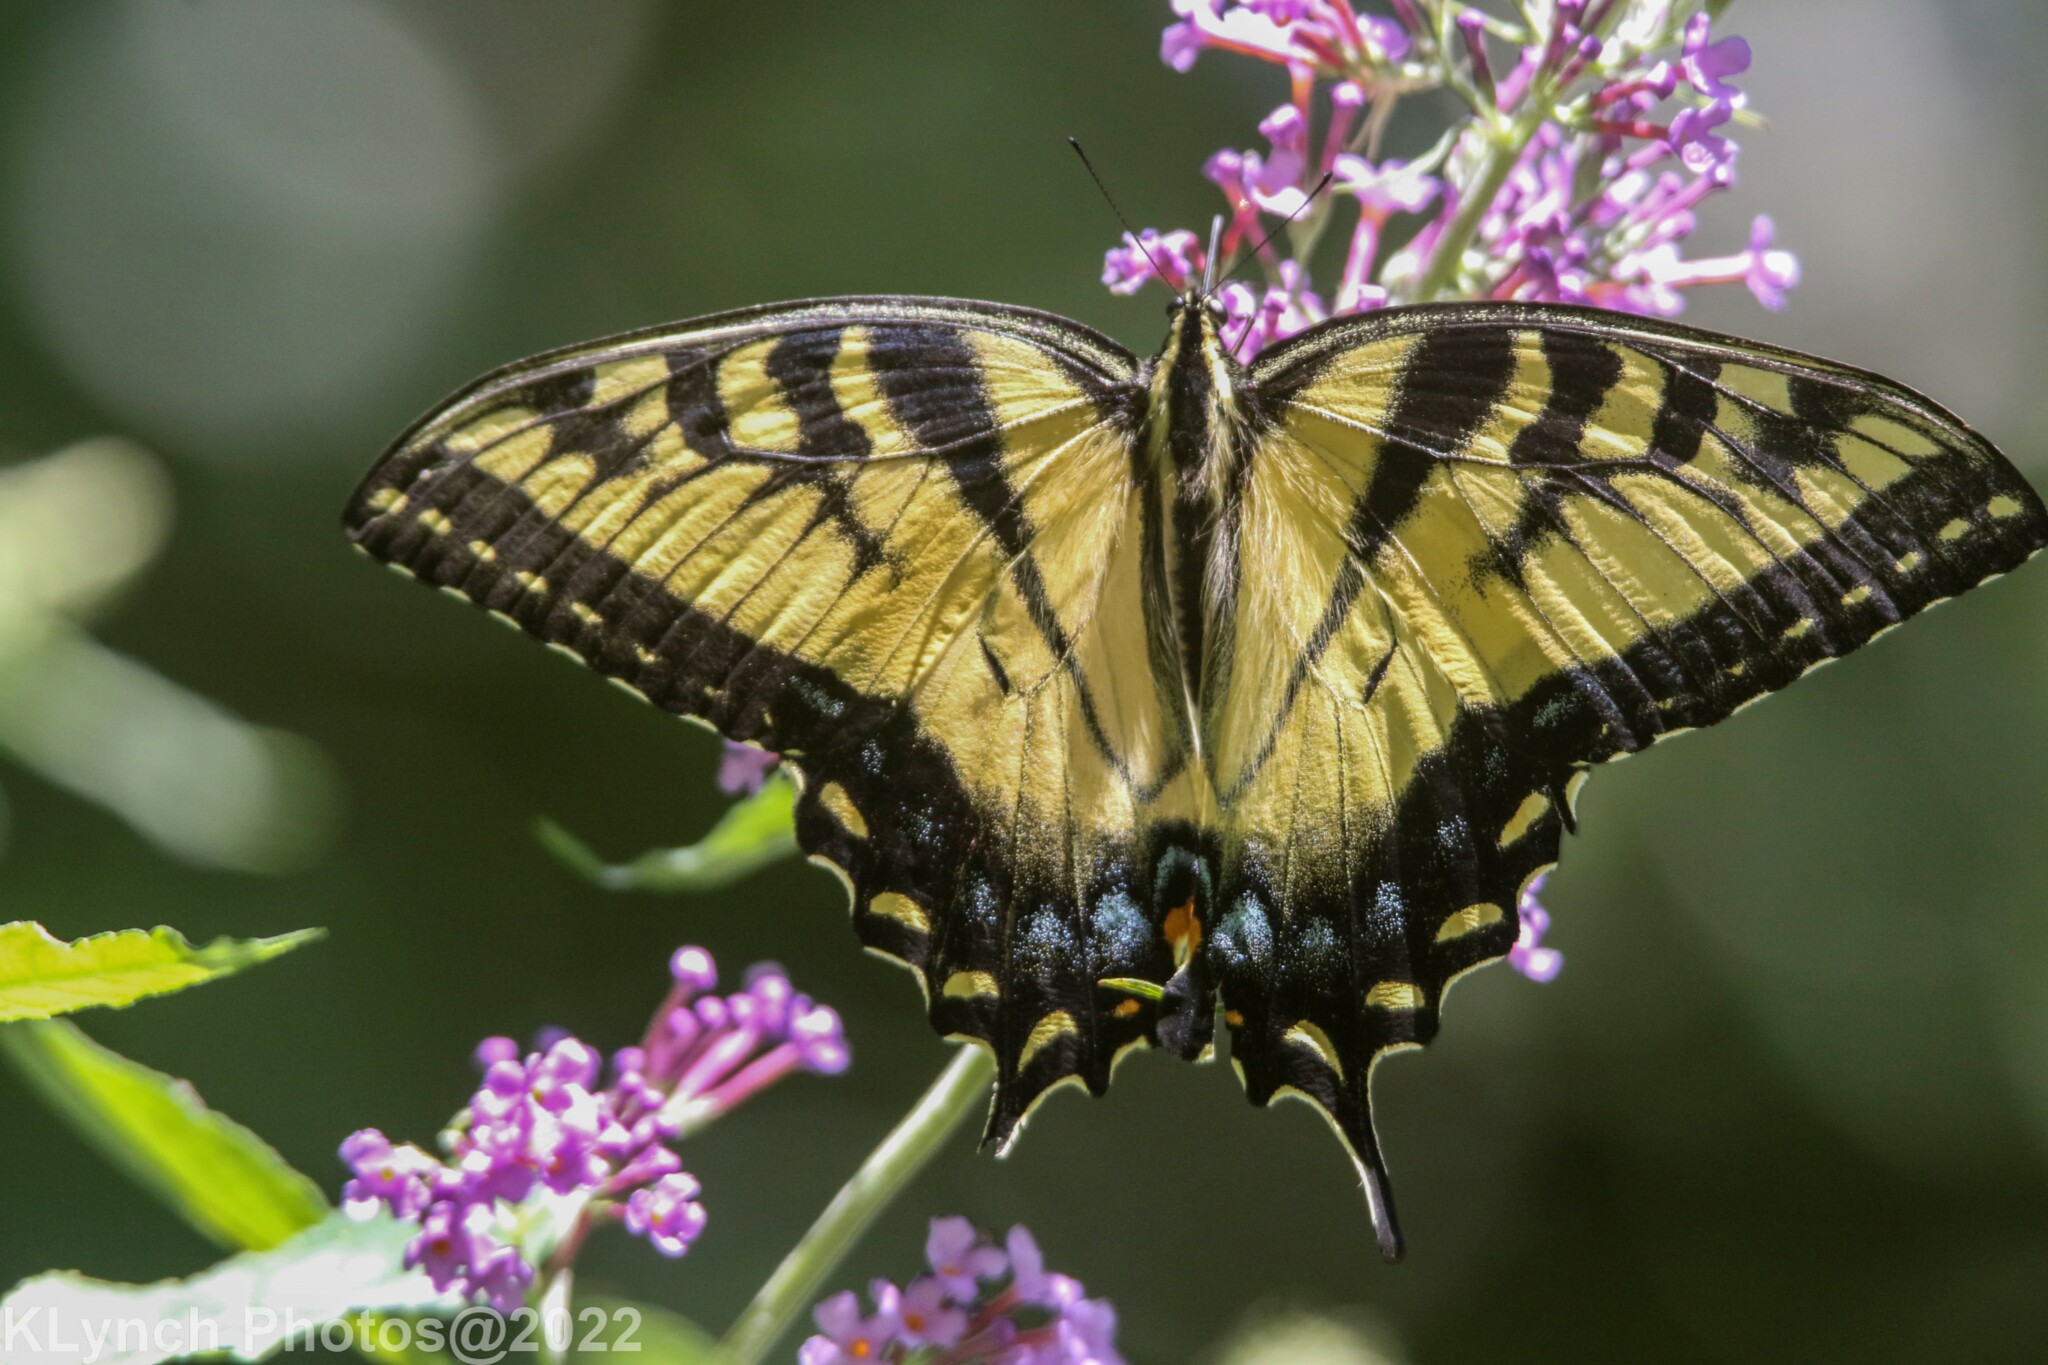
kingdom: Animalia
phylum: Arthropoda
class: Insecta
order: Lepidoptera
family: Papilionidae
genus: Papilio
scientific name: Papilio glaucus
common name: Tiger swallowtail
